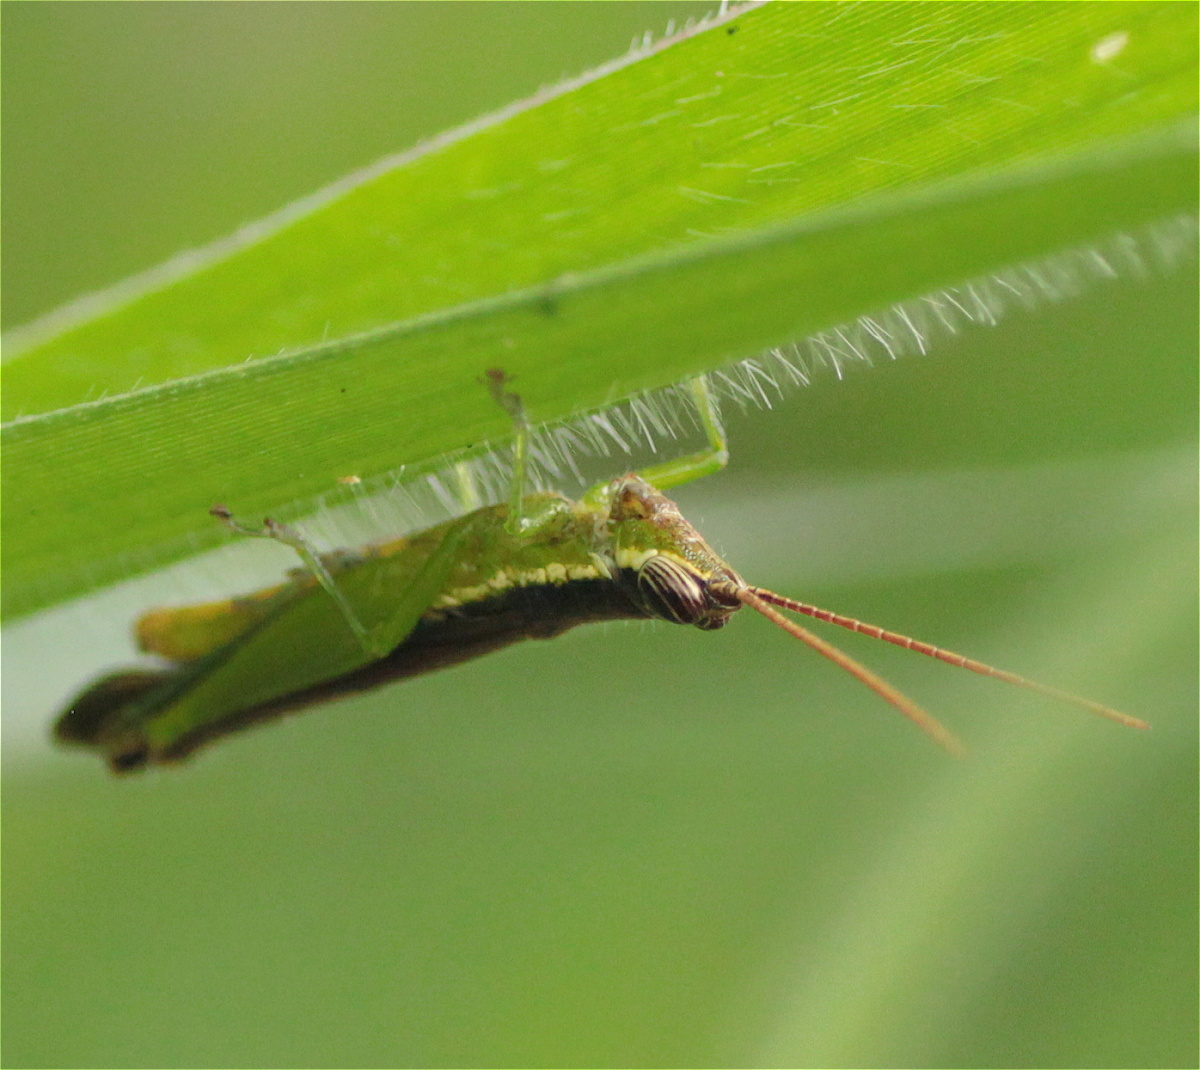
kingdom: Animalia
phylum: Arthropoda
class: Insecta
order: Orthoptera
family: Acrididae
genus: Stenopola
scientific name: Stenopola puncticeps
